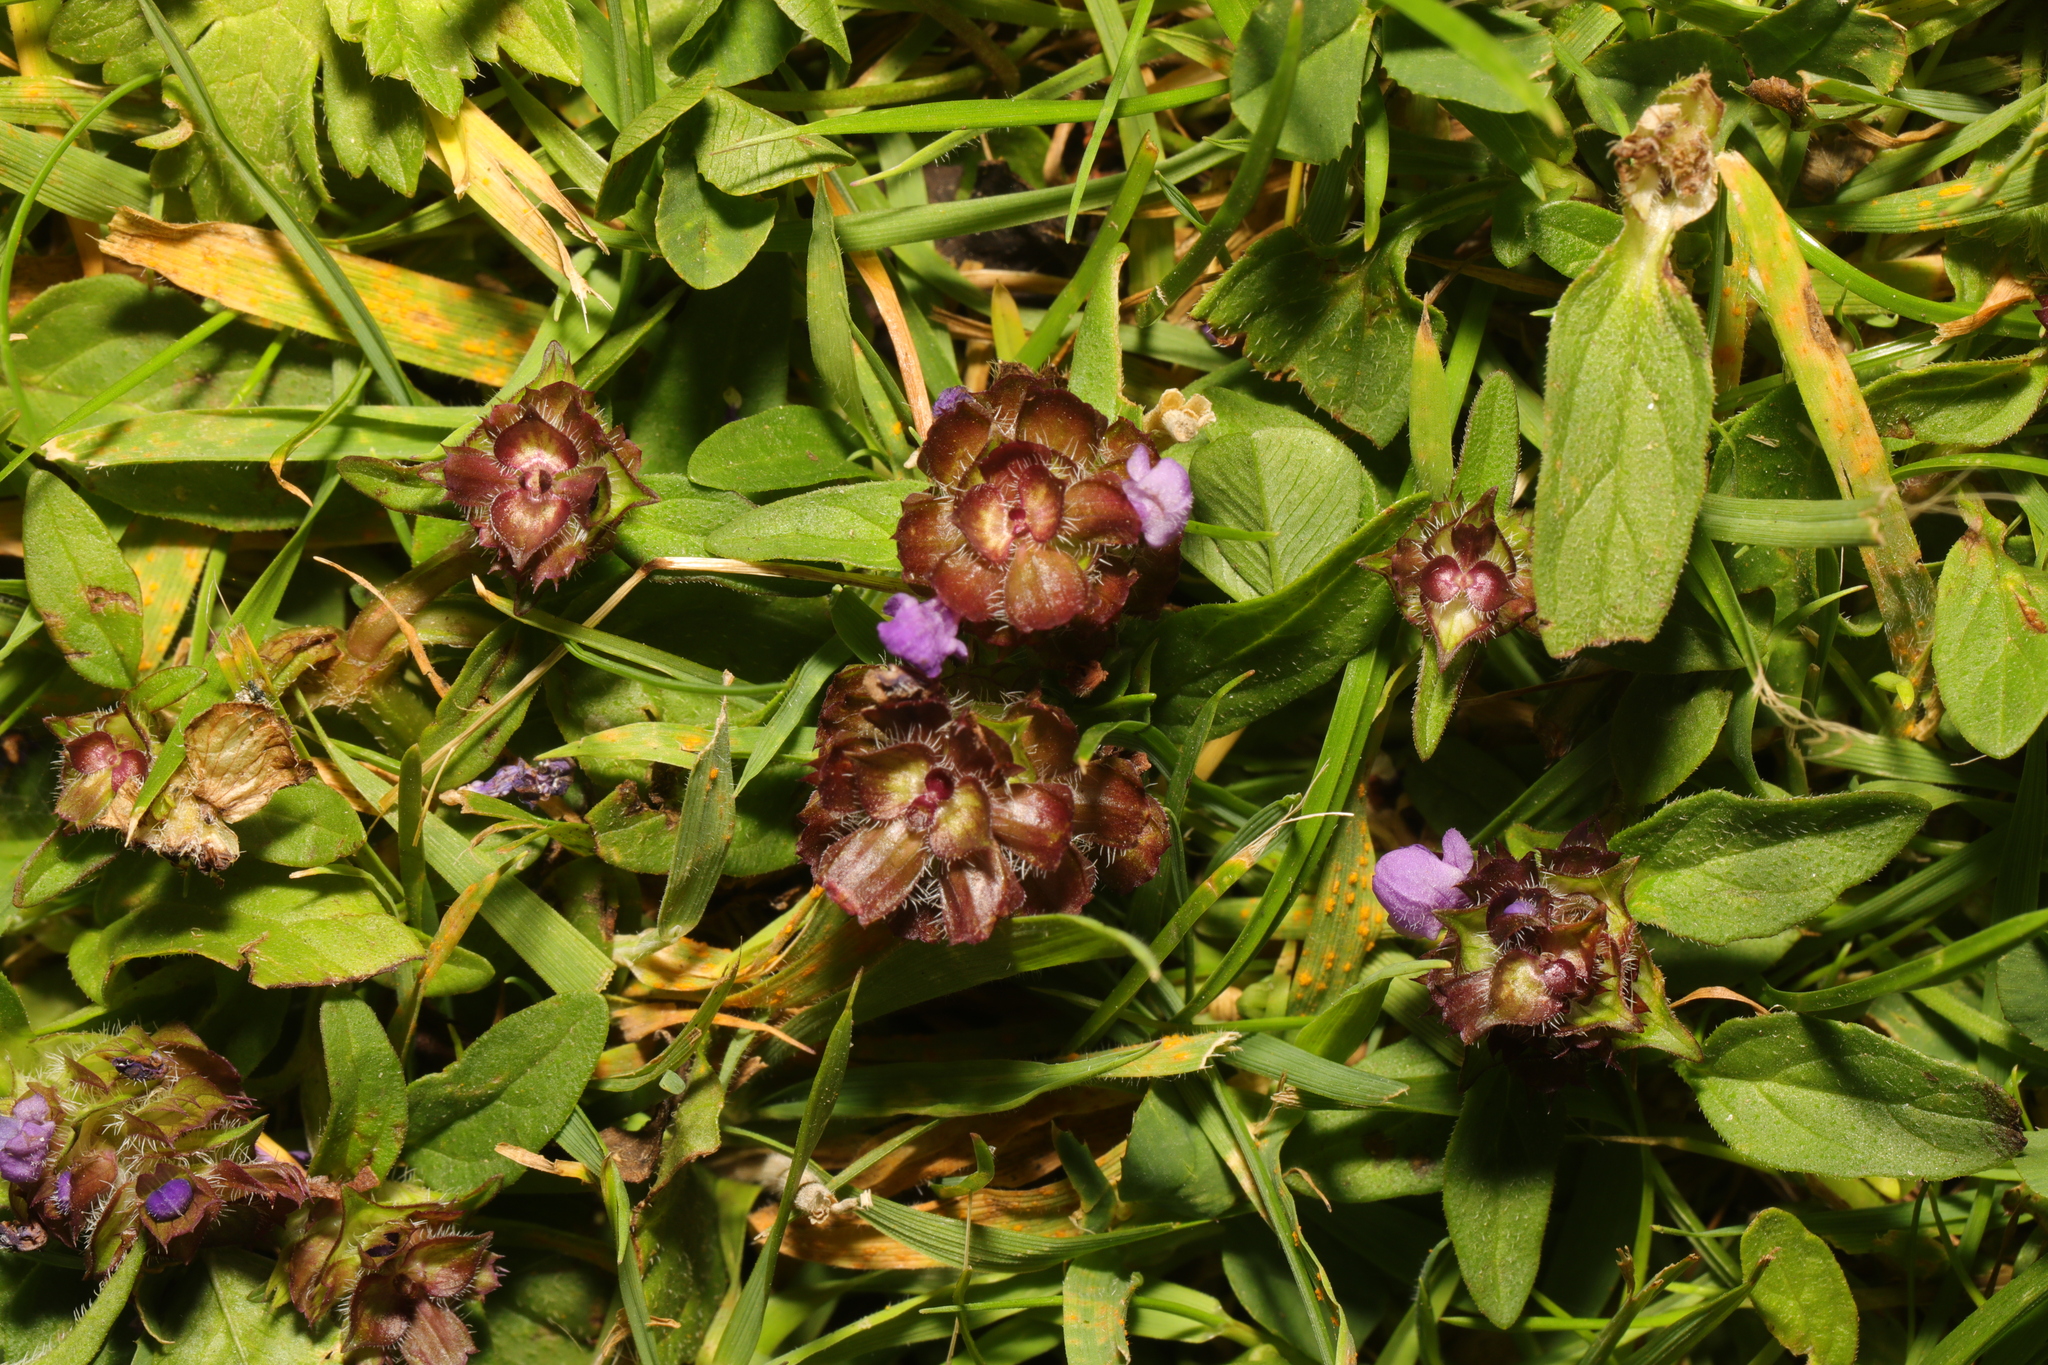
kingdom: Plantae
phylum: Tracheophyta
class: Magnoliopsida
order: Lamiales
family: Lamiaceae
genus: Prunella
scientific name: Prunella vulgaris
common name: Heal-all
